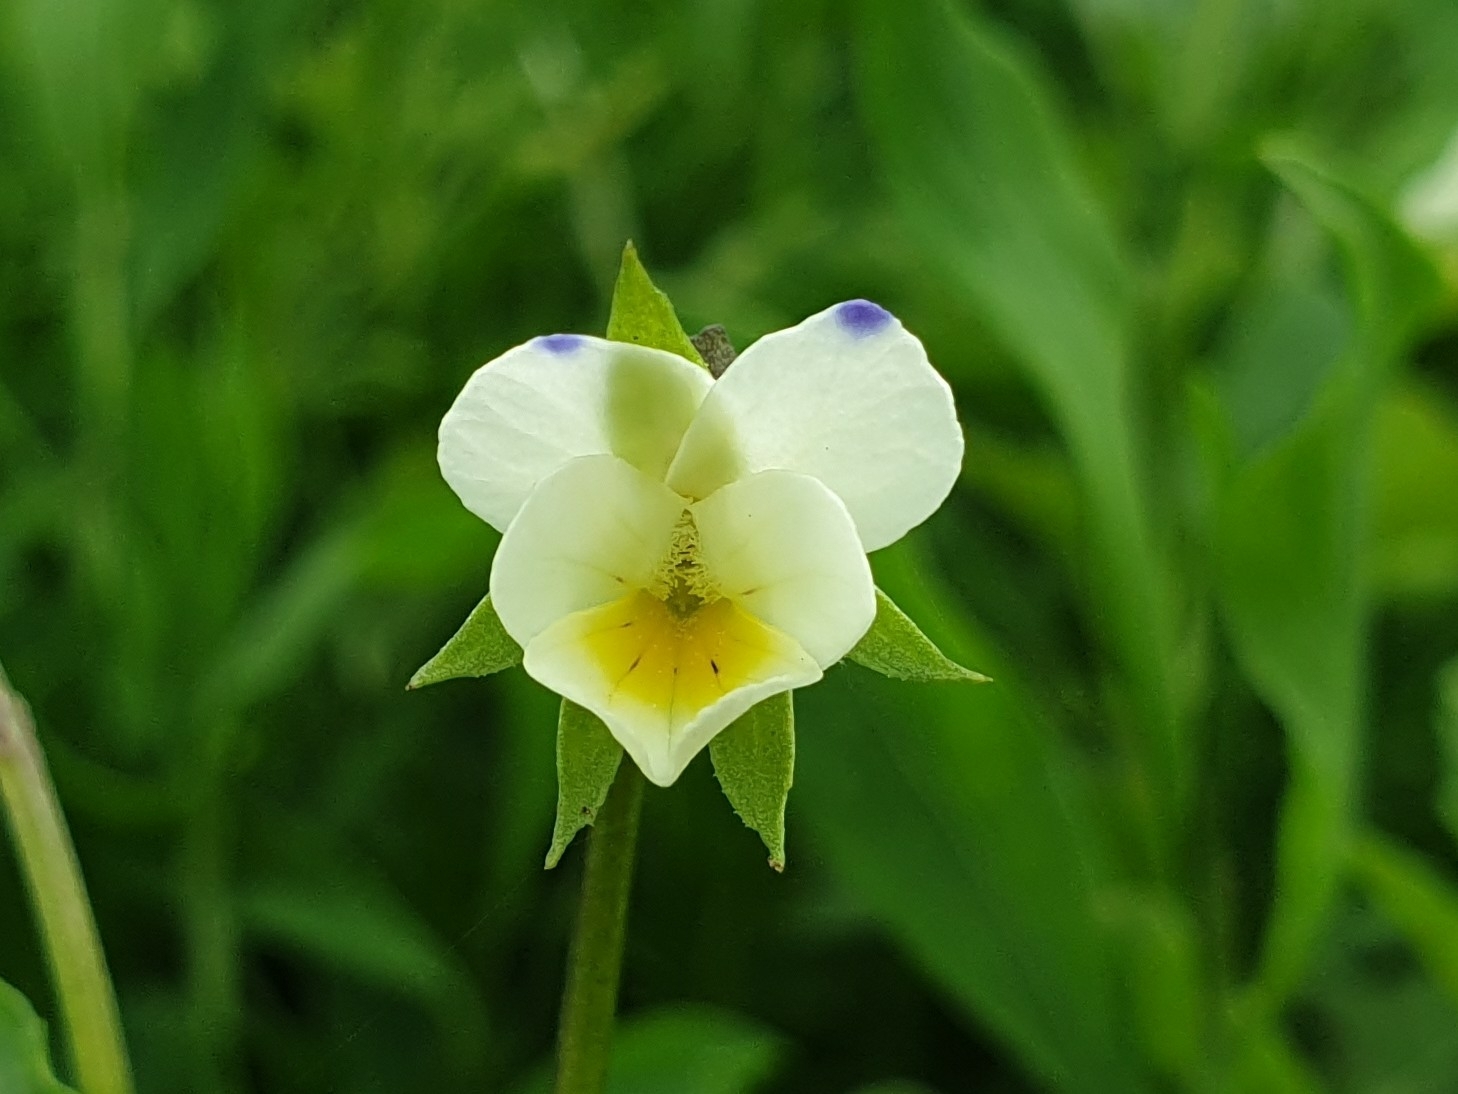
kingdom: Plantae
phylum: Tracheophyta
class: Magnoliopsida
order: Malpighiales
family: Violaceae
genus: Viola
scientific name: Viola arvensis
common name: Field pansy
